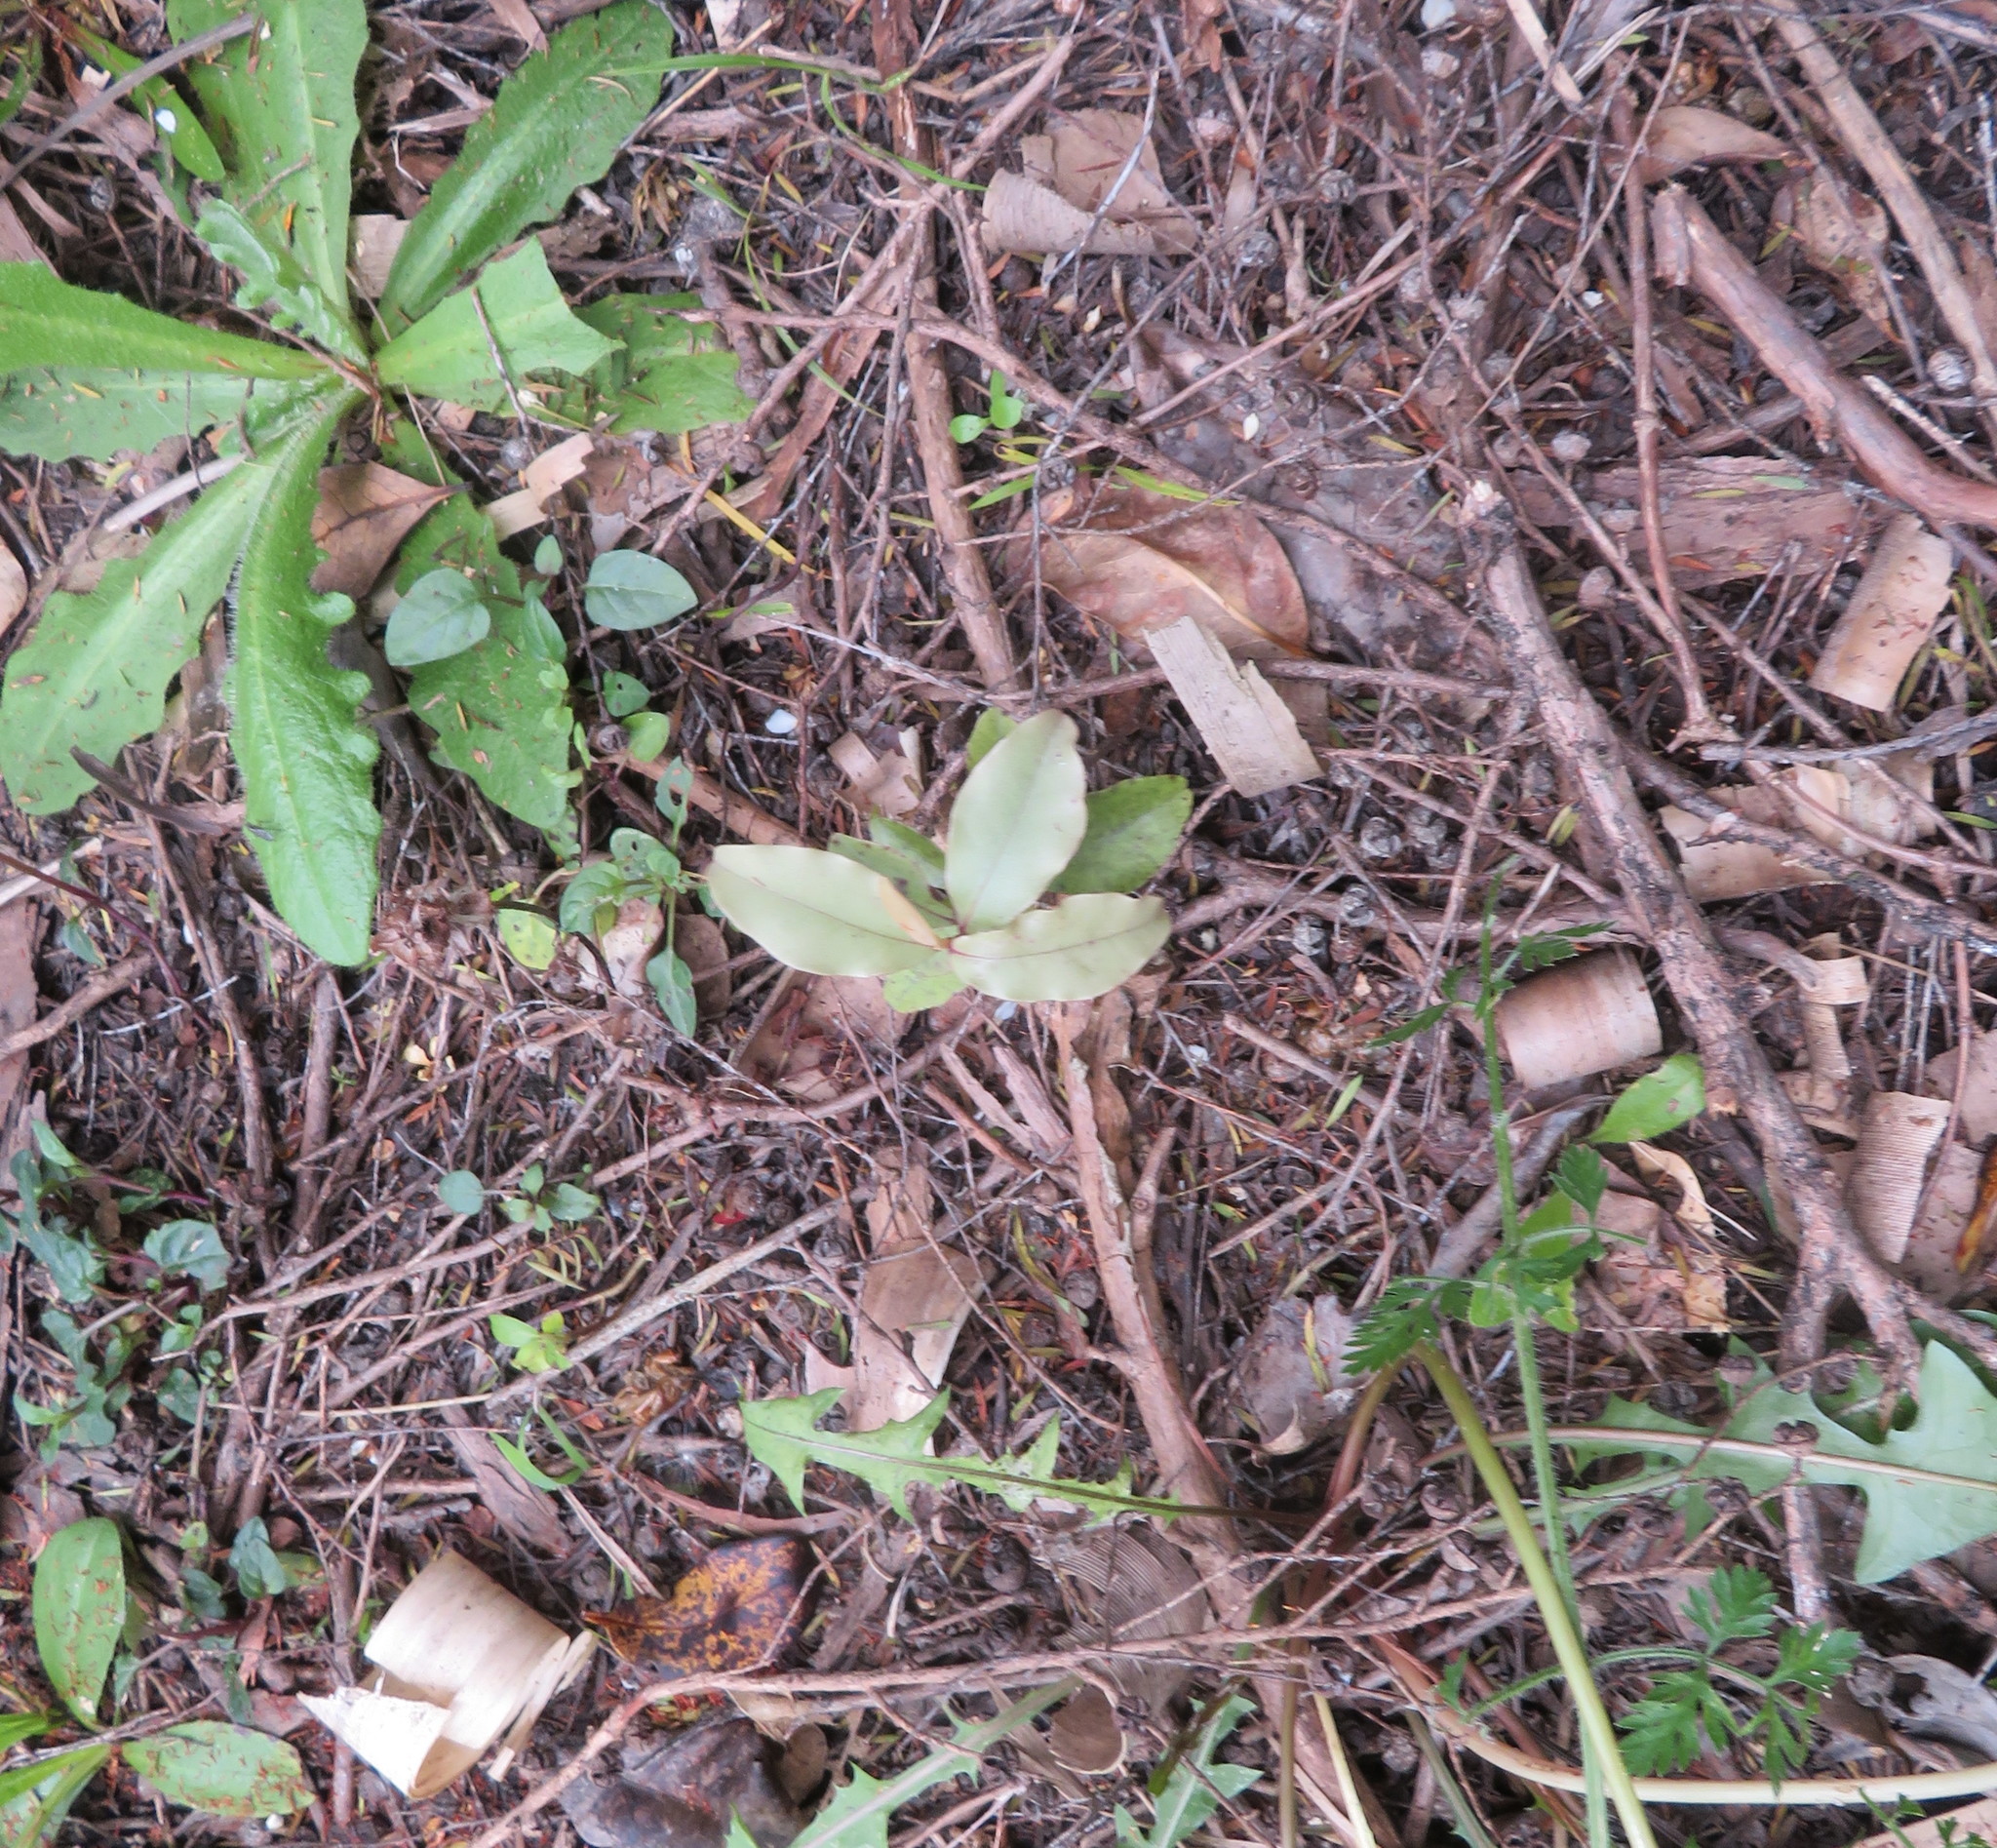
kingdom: Plantae
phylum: Tracheophyta
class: Magnoliopsida
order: Ericales
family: Primulaceae
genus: Myrsine
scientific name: Myrsine australis
